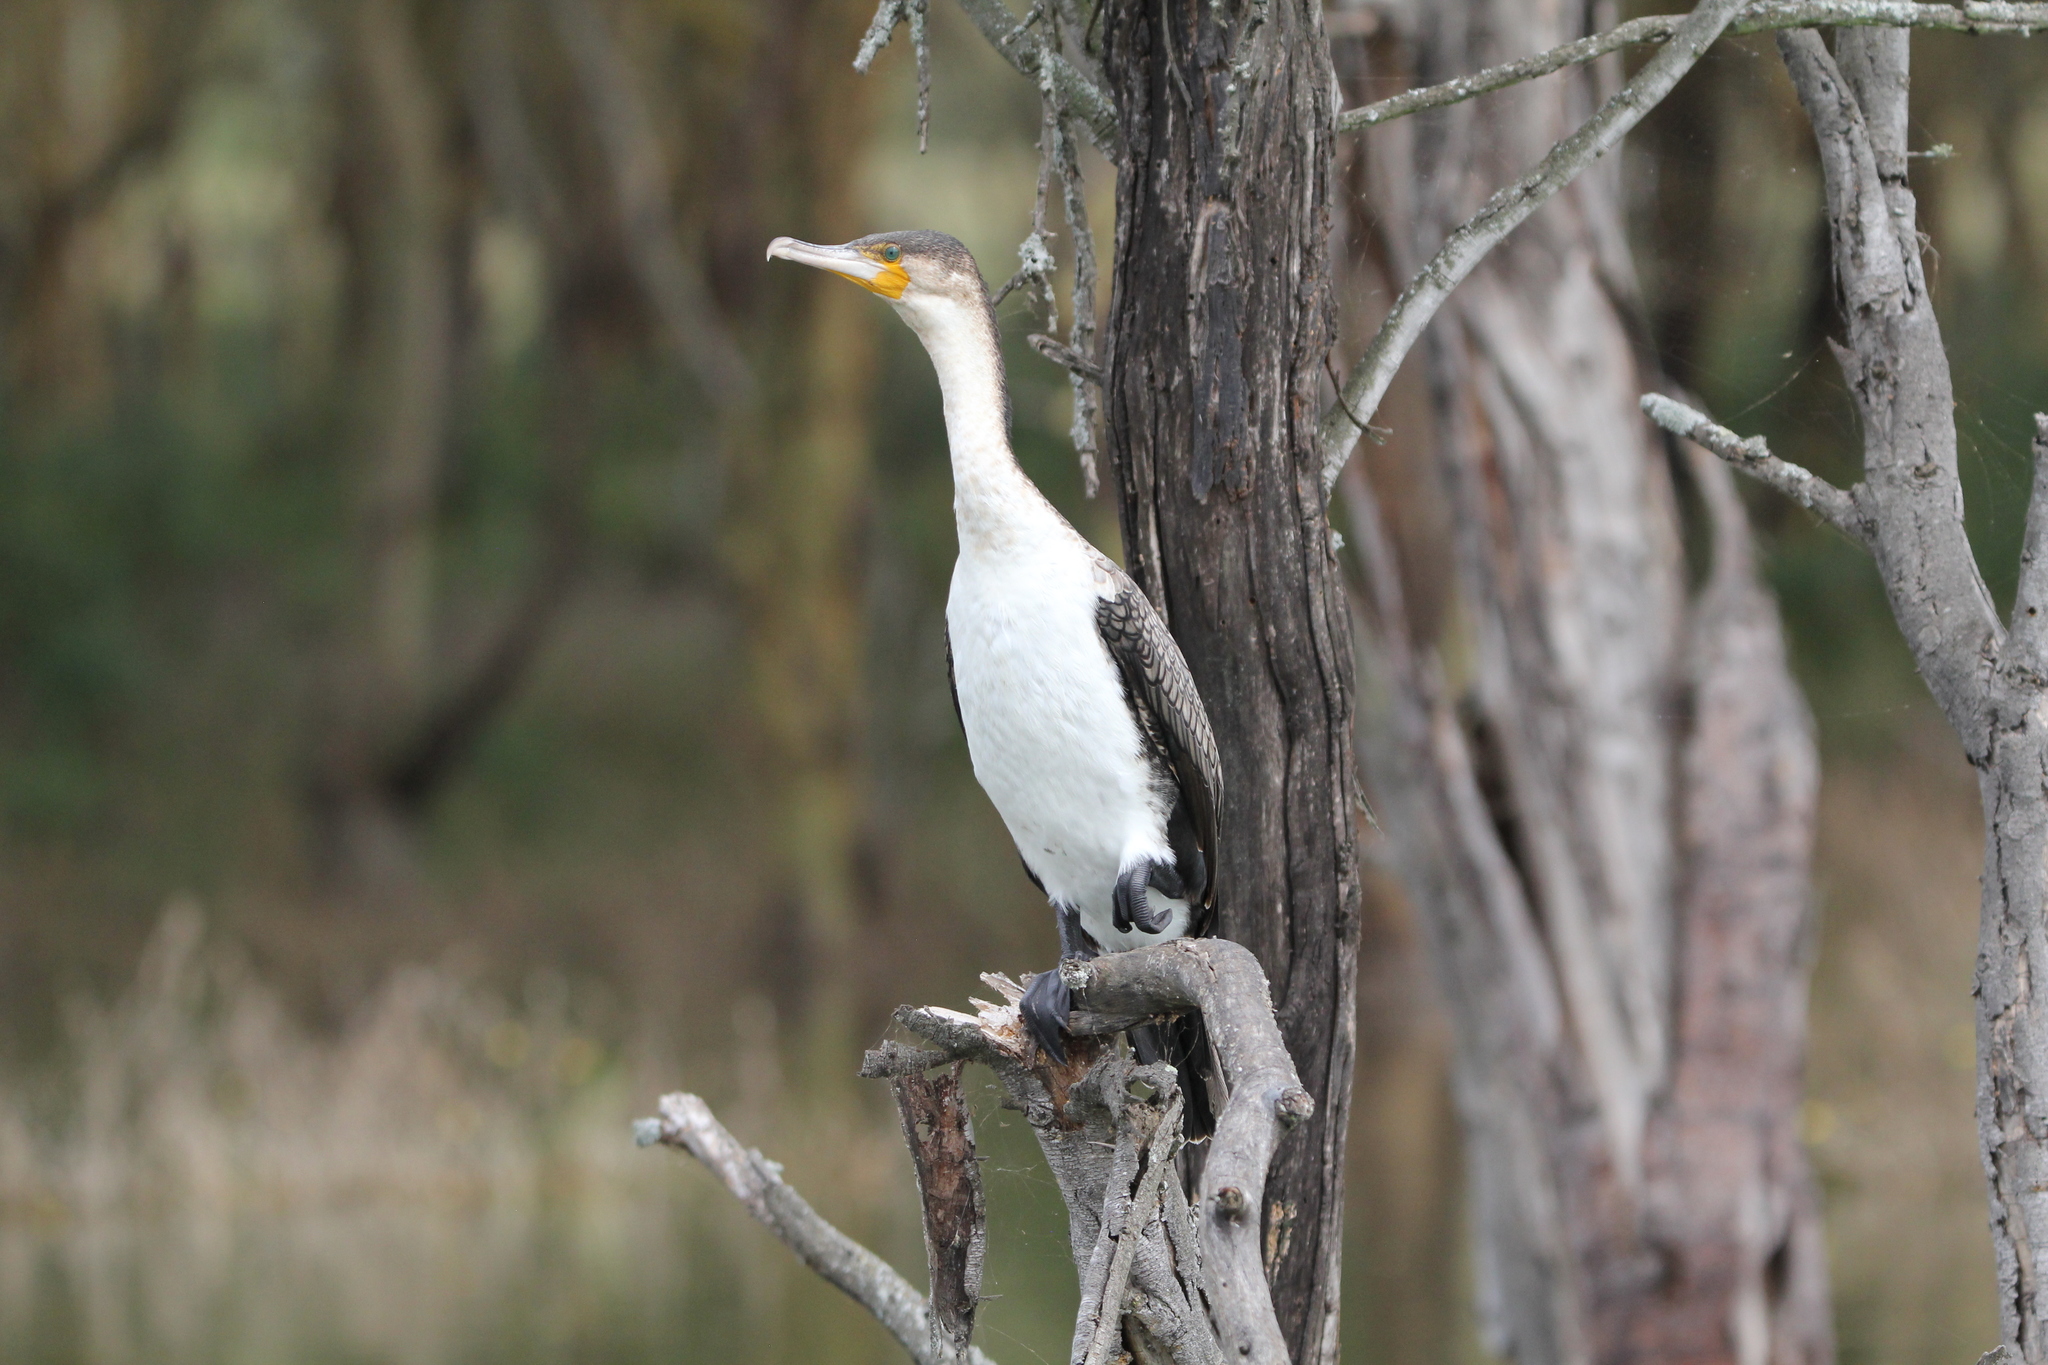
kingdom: Animalia
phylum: Chordata
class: Aves
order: Suliformes
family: Phalacrocoracidae
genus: Phalacrocorax
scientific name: Phalacrocorax carbo
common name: Great cormorant
